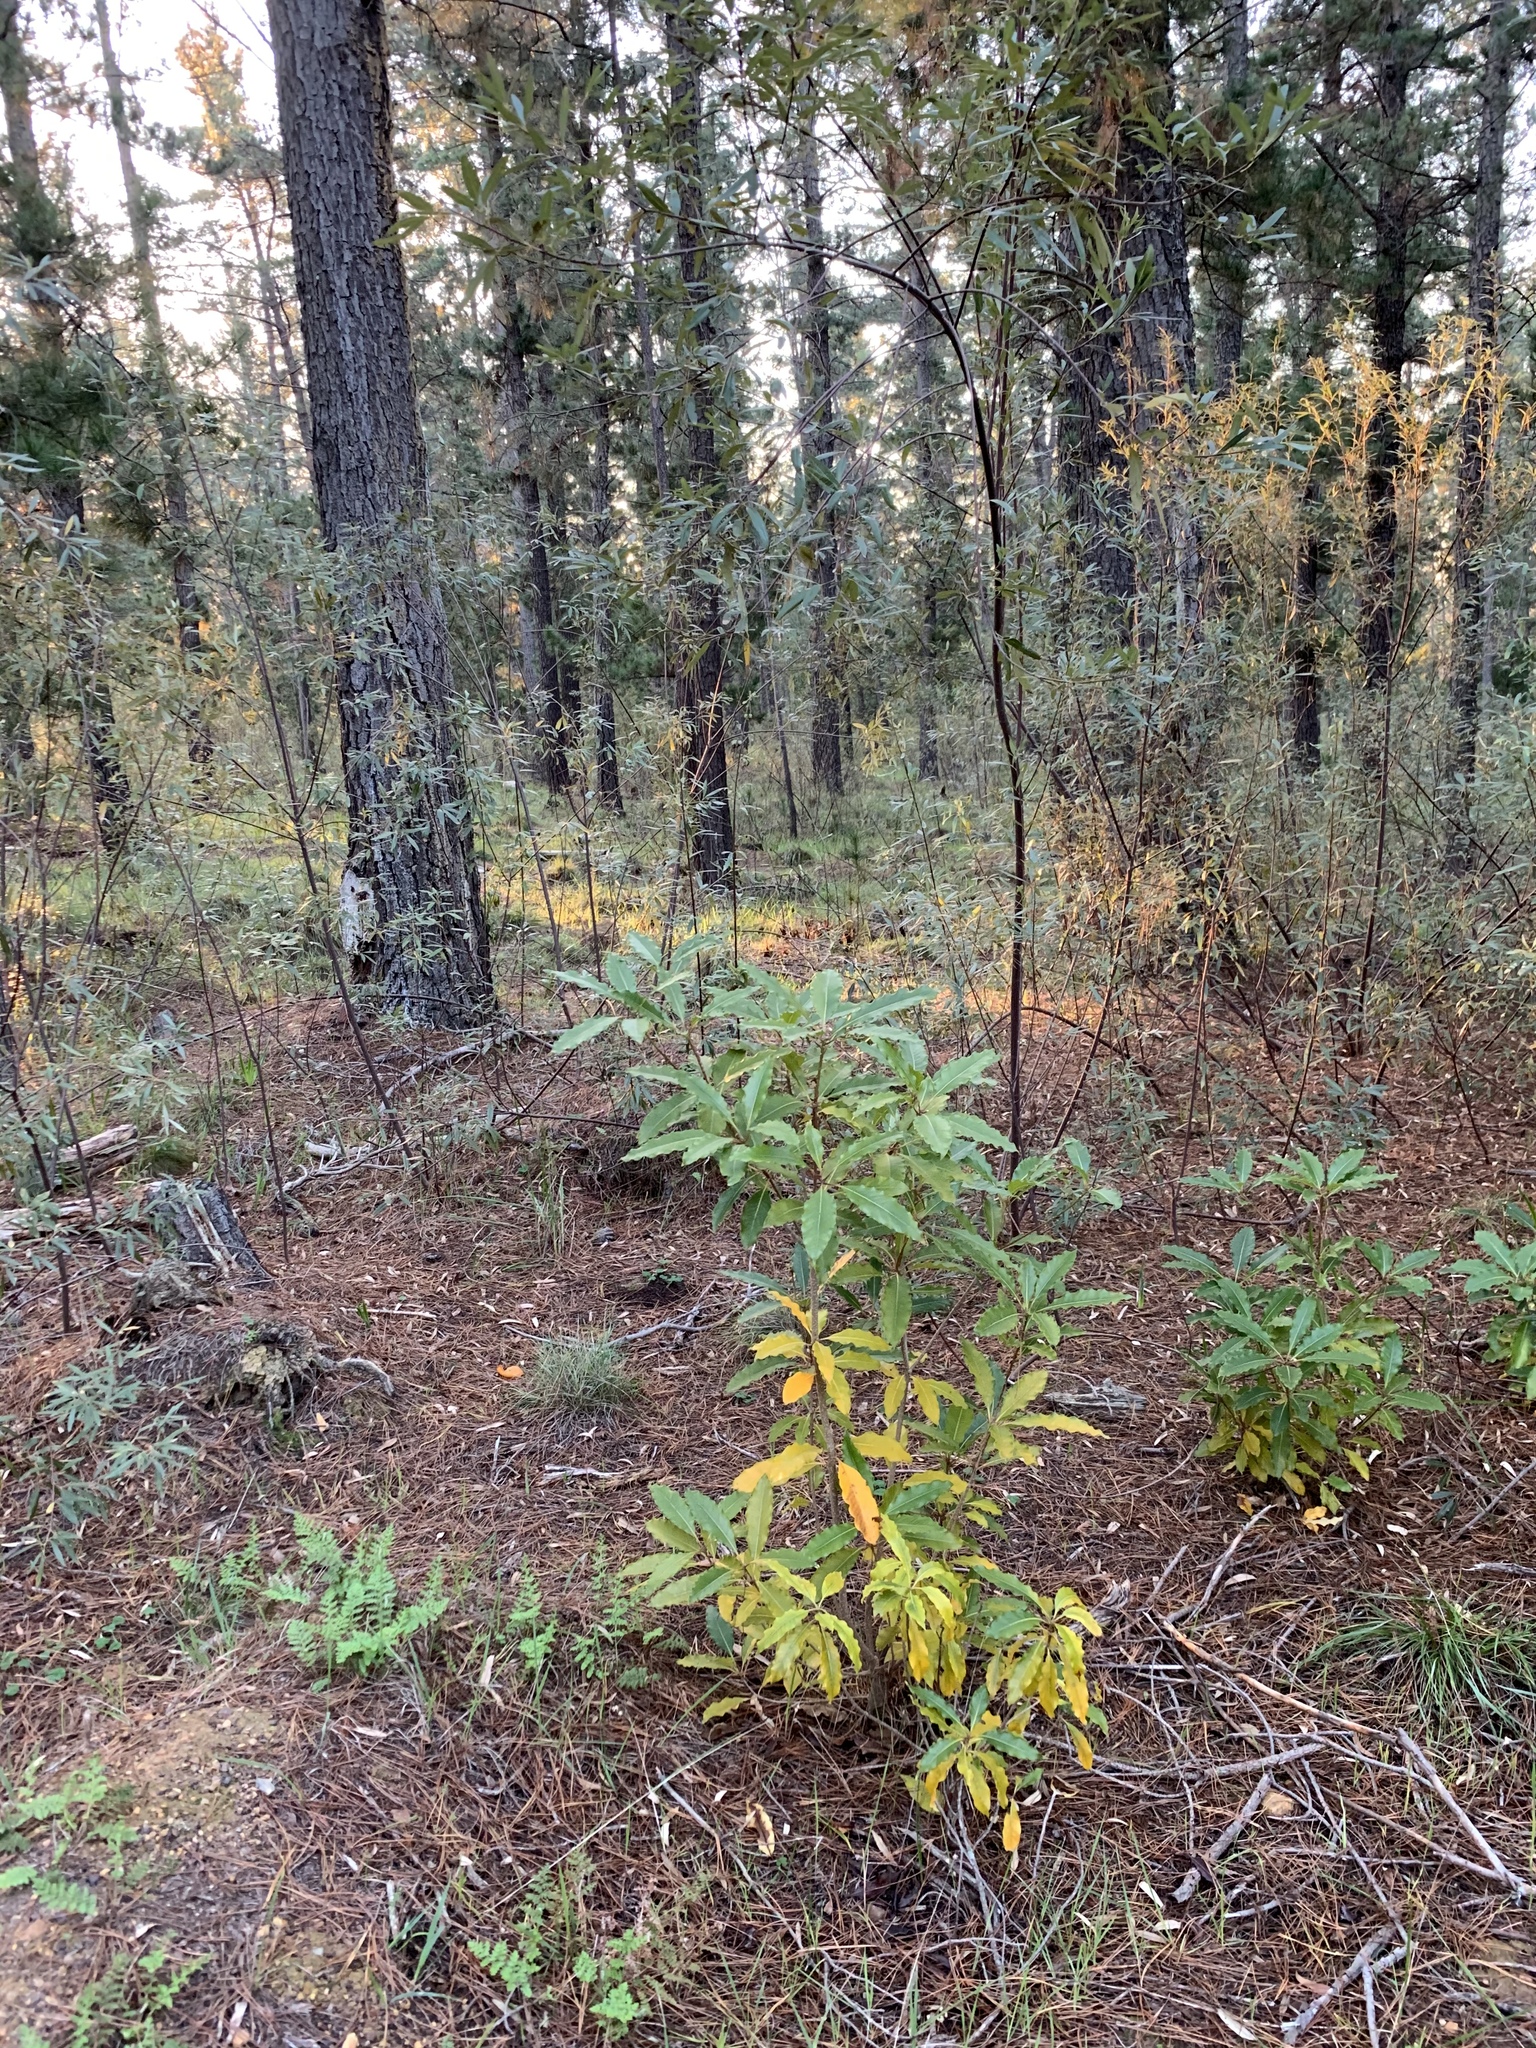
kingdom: Plantae
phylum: Tracheophyta
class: Magnoliopsida
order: Apiales
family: Pittosporaceae
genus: Pittosporum
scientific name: Pittosporum undulatum
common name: Australian cheesewood
